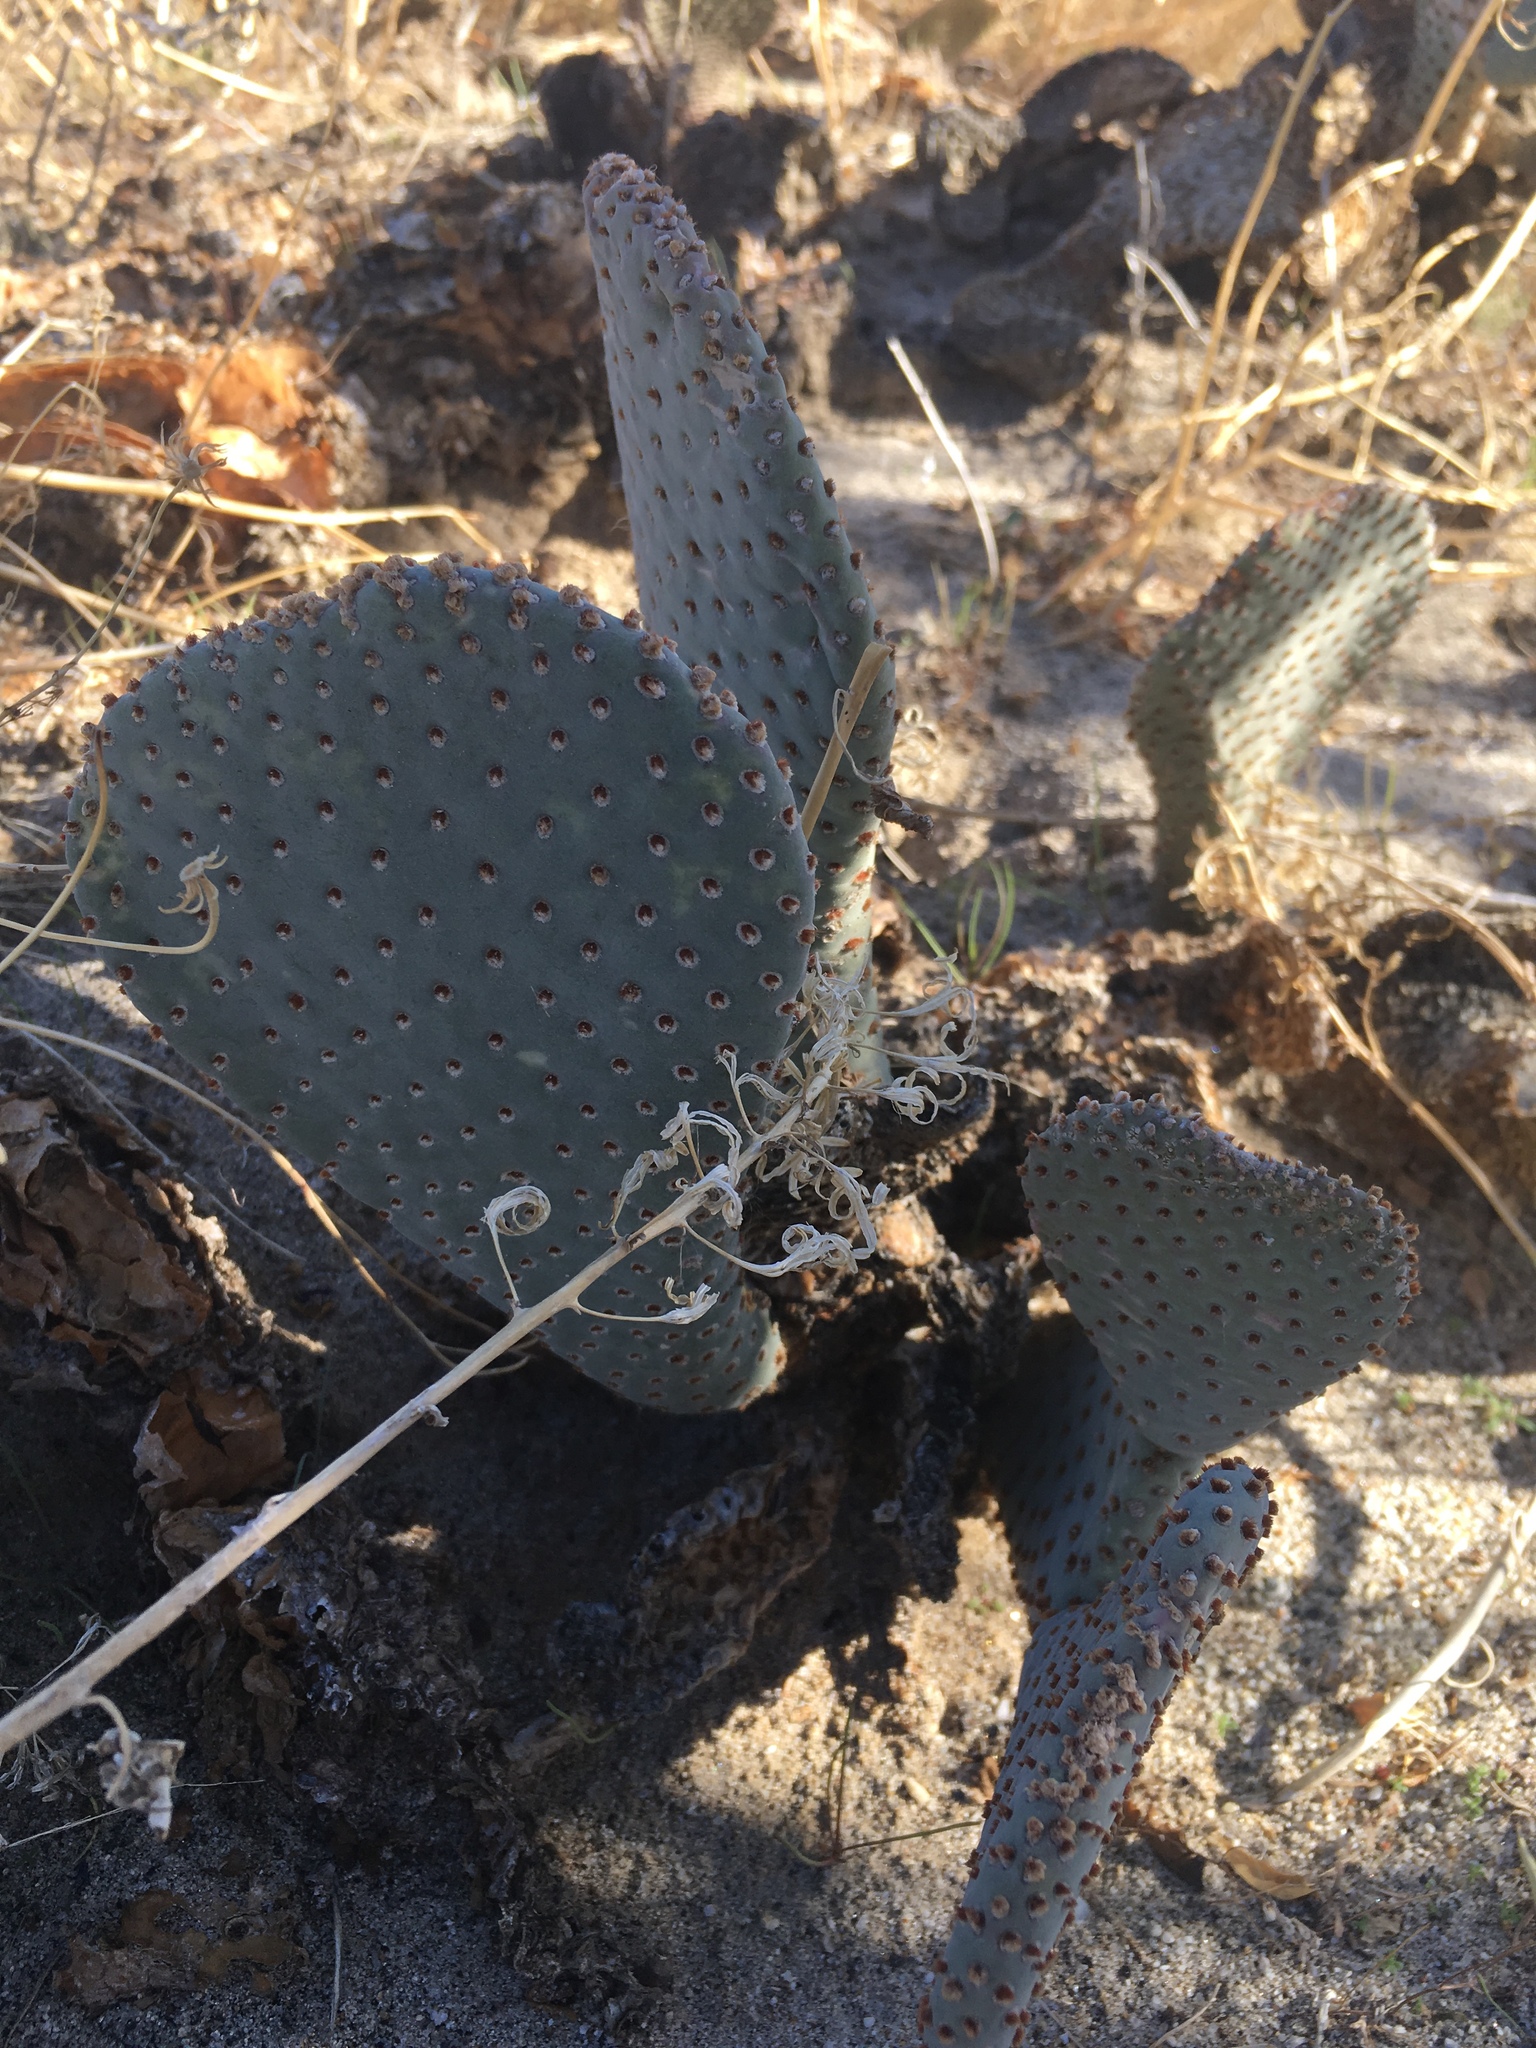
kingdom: Plantae
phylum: Tracheophyta
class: Magnoliopsida
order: Caryophyllales
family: Cactaceae
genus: Opuntia
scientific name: Opuntia basilaris
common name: Beavertail prickly-pear
